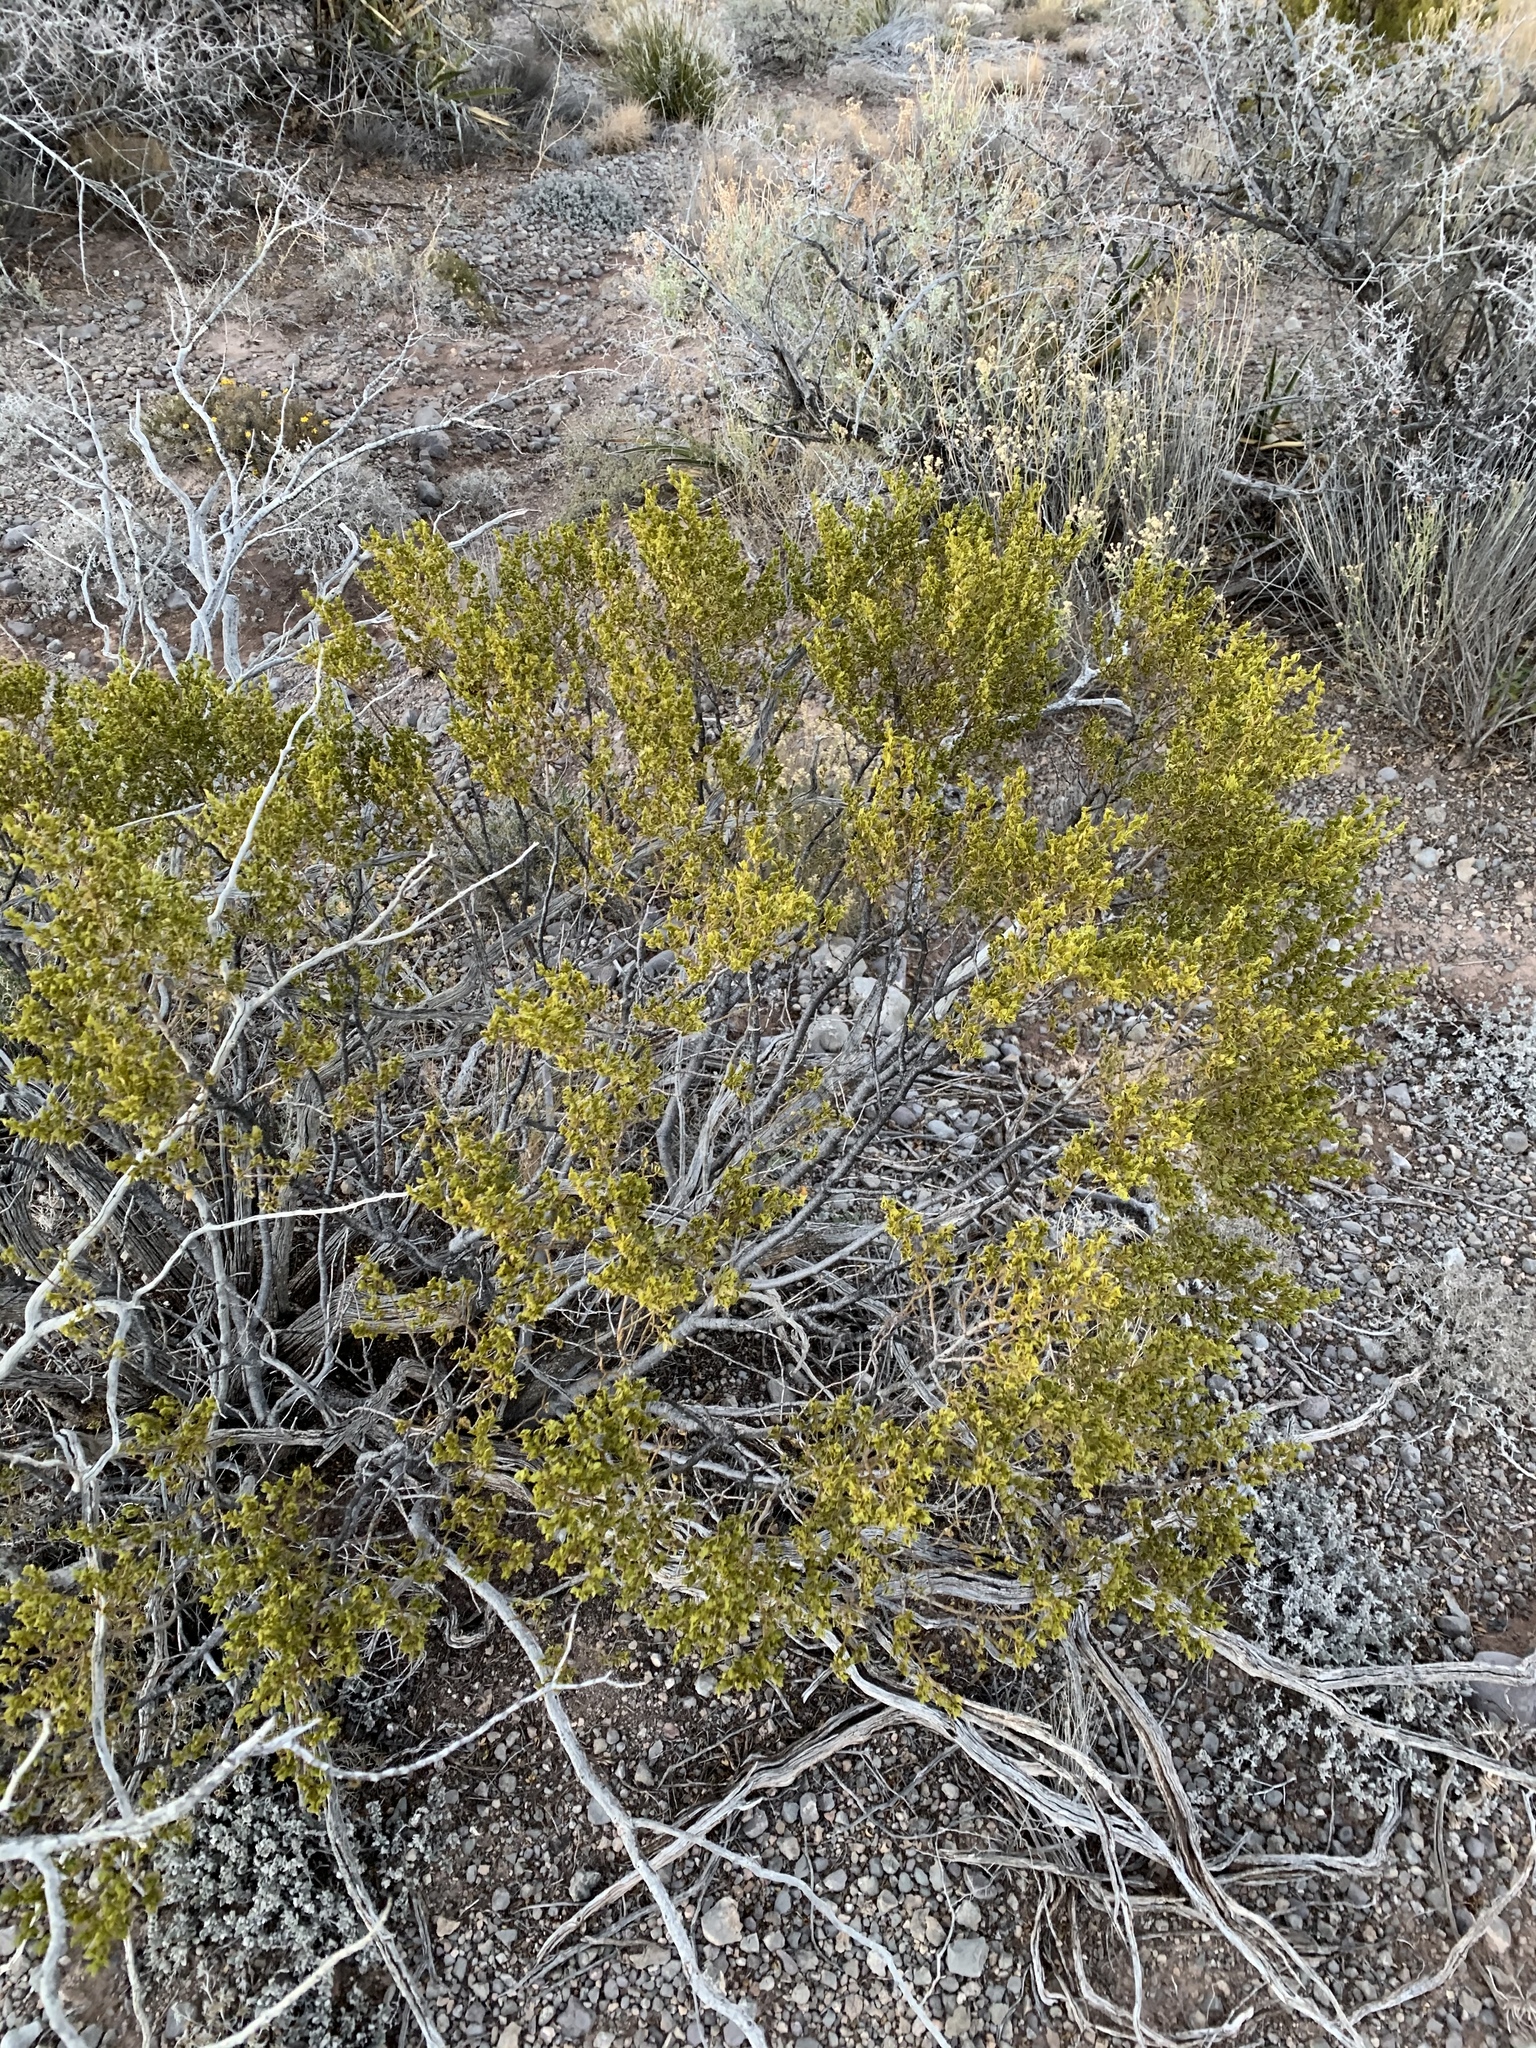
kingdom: Plantae
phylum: Tracheophyta
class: Magnoliopsida
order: Zygophyllales
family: Zygophyllaceae
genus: Larrea
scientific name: Larrea tridentata
